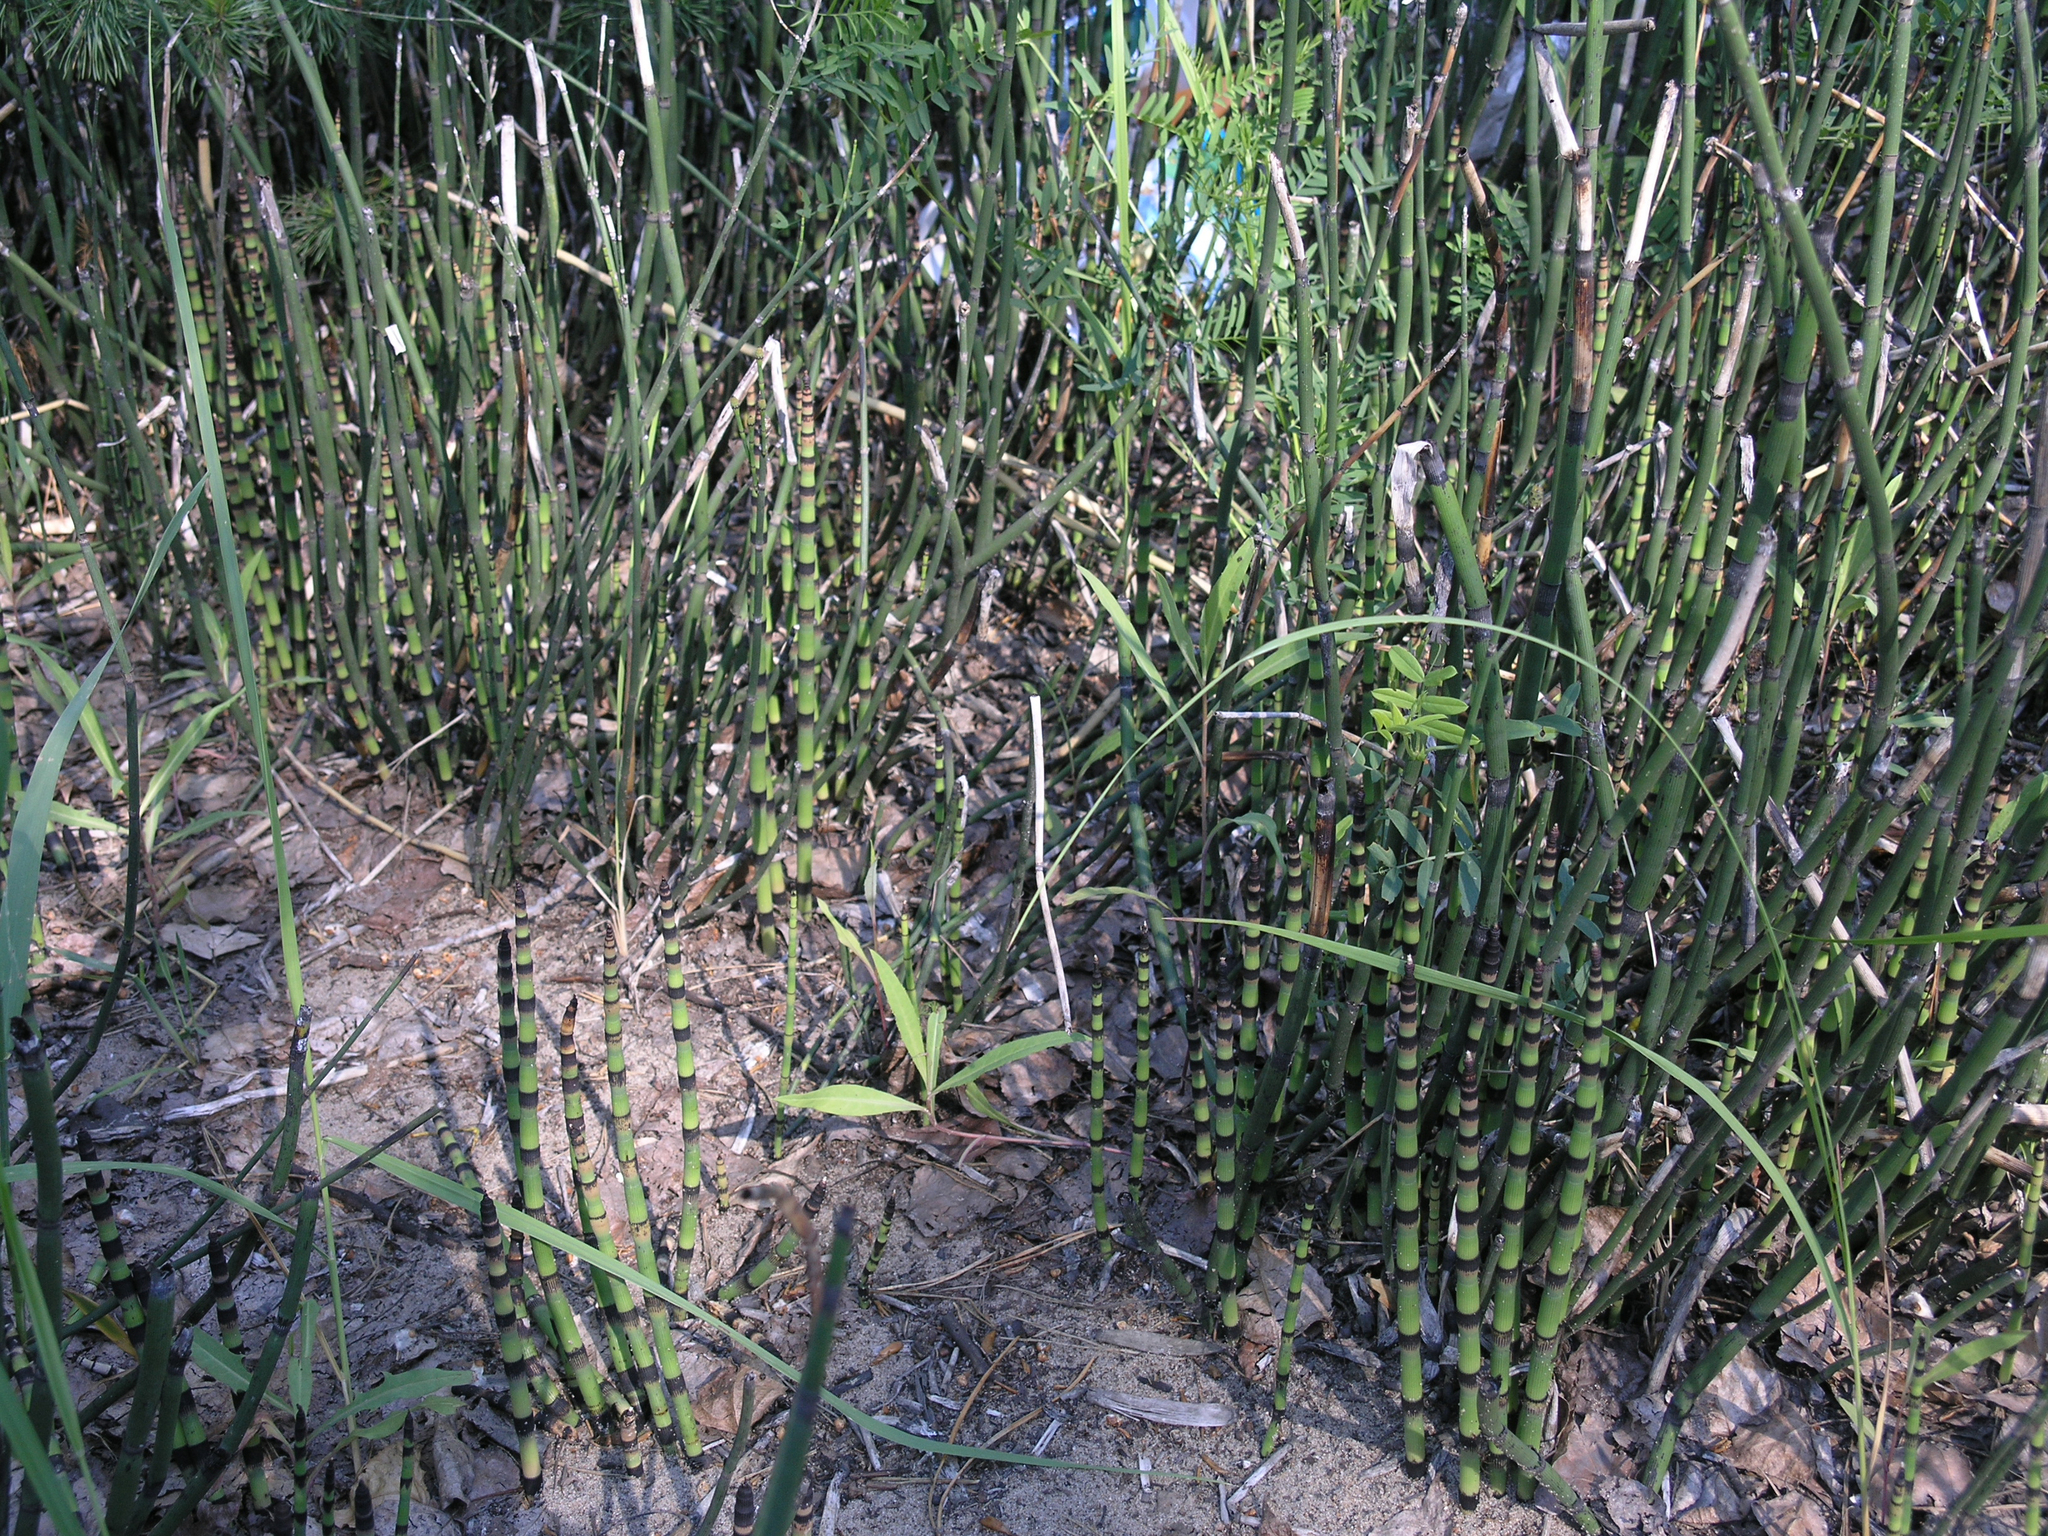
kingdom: Plantae
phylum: Tracheophyta
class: Polypodiopsida
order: Equisetales
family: Equisetaceae
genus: Equisetum
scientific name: Equisetum hyemale
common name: Rough horsetail
